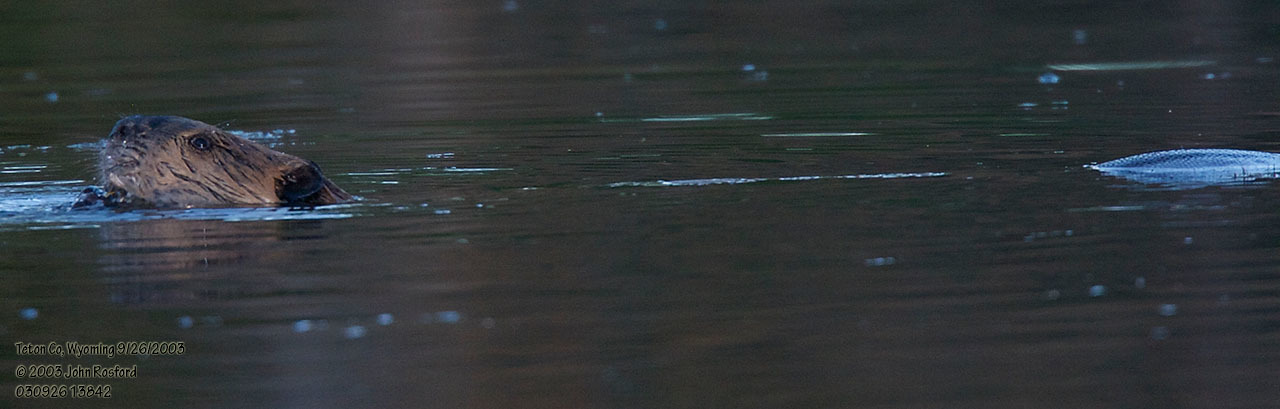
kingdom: Animalia
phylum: Chordata
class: Mammalia
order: Rodentia
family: Castoridae
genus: Castor
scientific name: Castor canadensis
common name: American beaver
